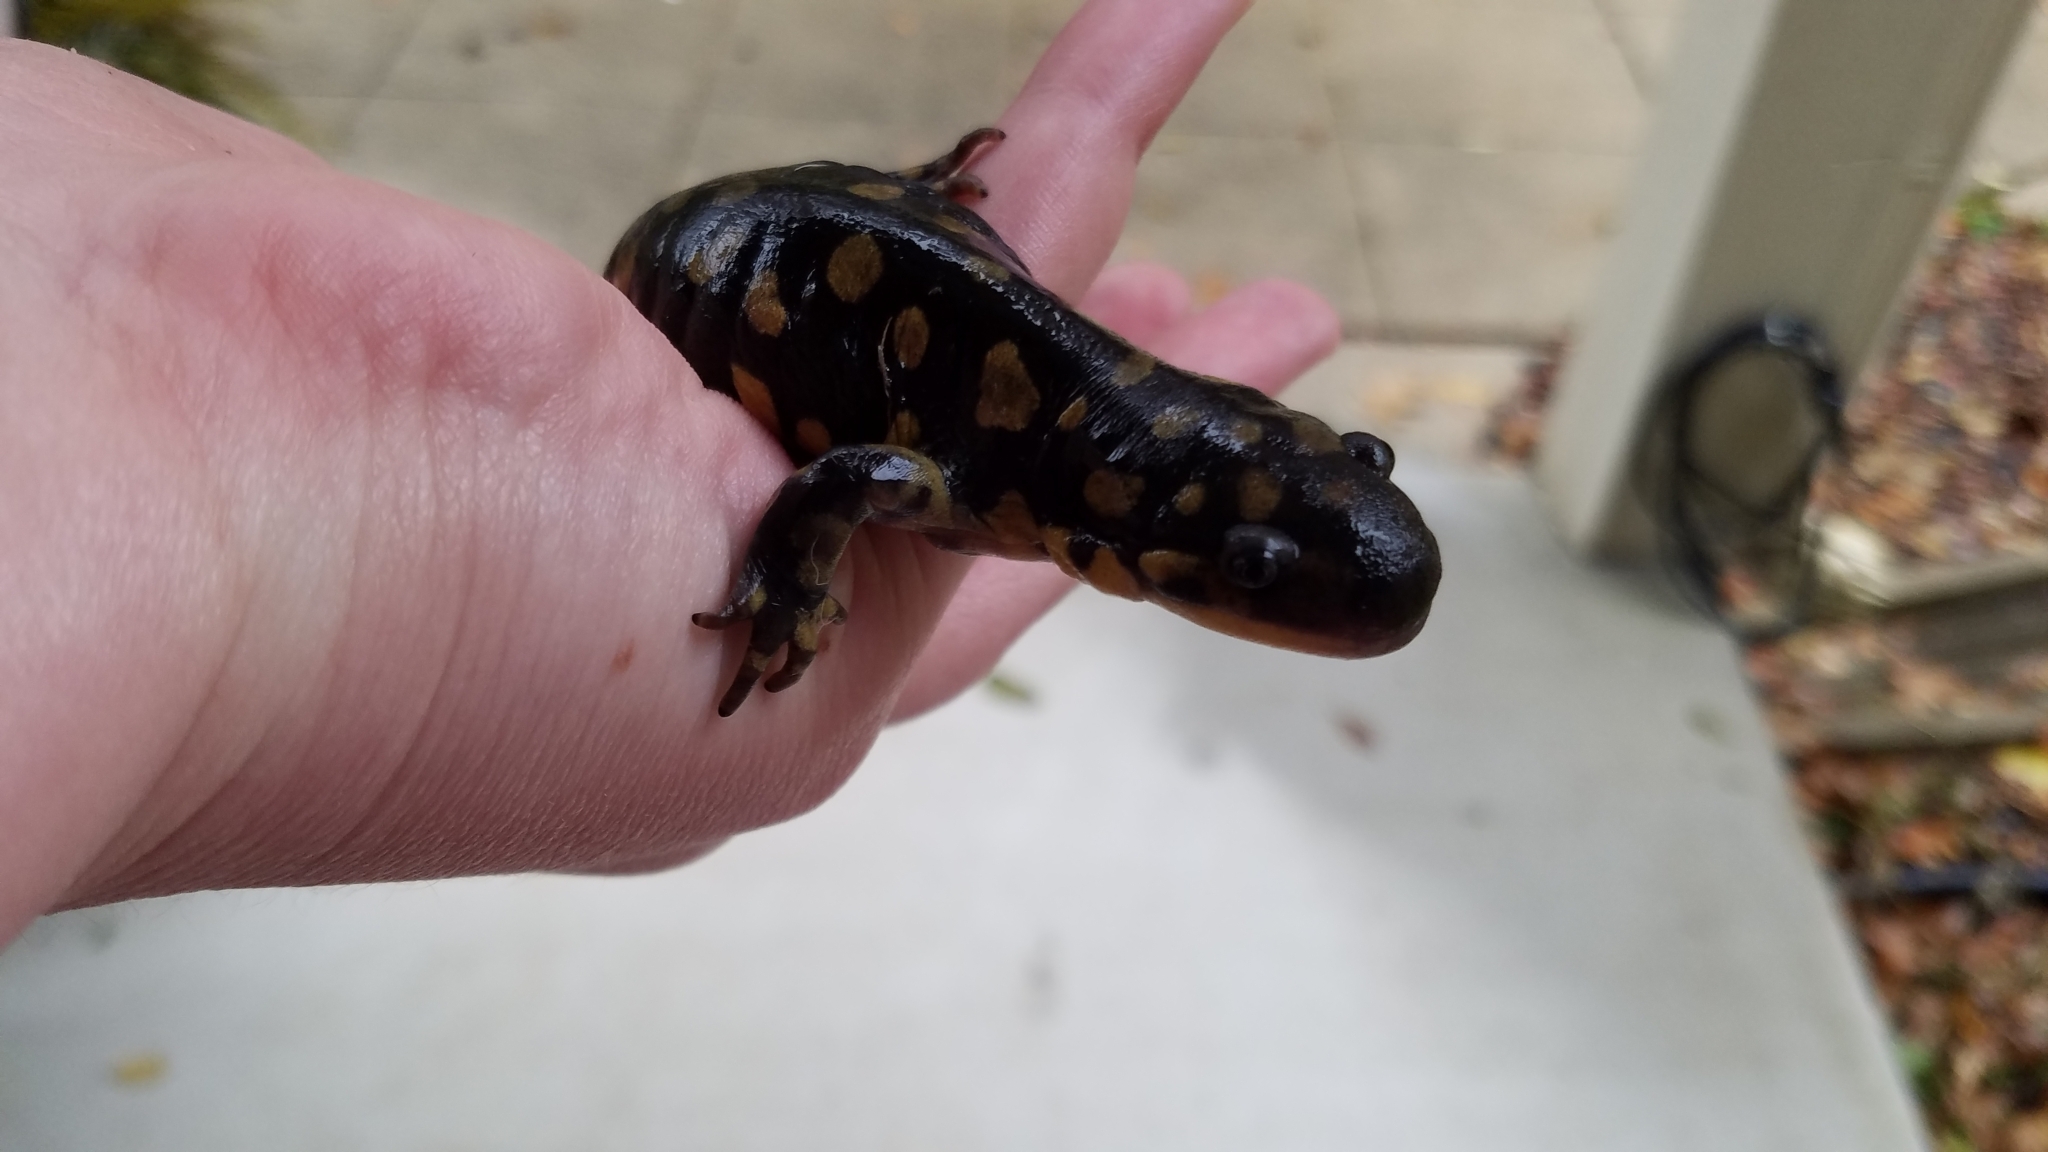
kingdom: Animalia
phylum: Chordata
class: Amphibia
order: Caudata
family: Ambystomatidae
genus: Ambystoma
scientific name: Ambystoma tigrinum
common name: Tiger salamander
